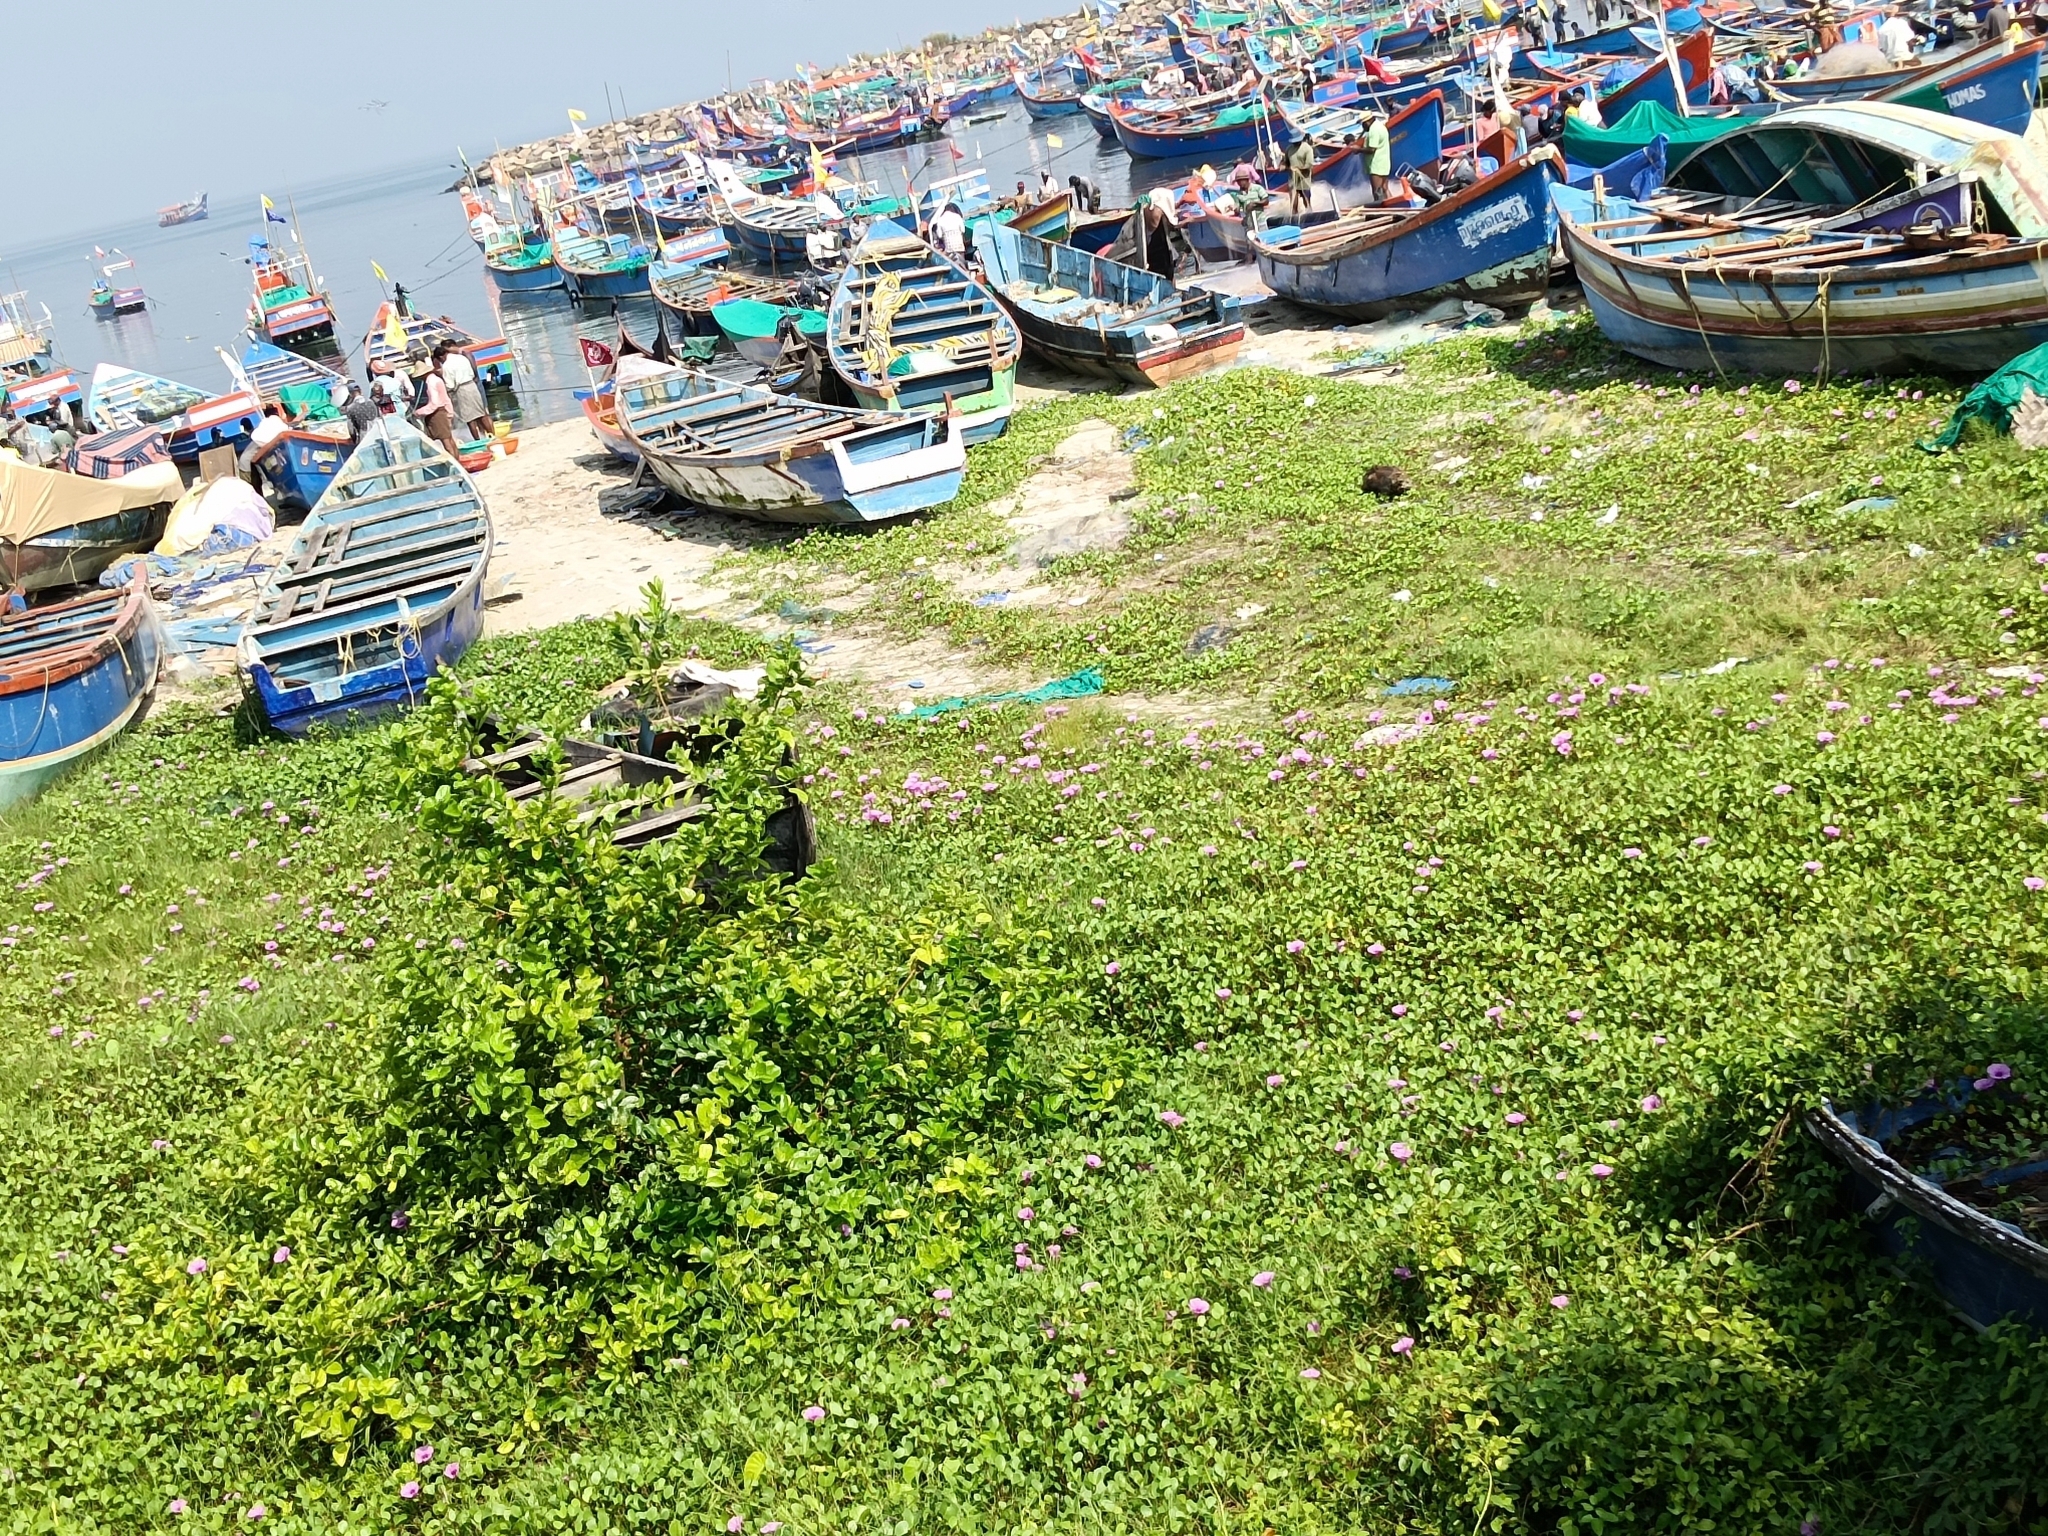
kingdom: Plantae
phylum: Tracheophyta
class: Magnoliopsida
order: Solanales
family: Convolvulaceae
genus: Ipomoea
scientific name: Ipomoea pes-caprae
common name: Beach morning glory
